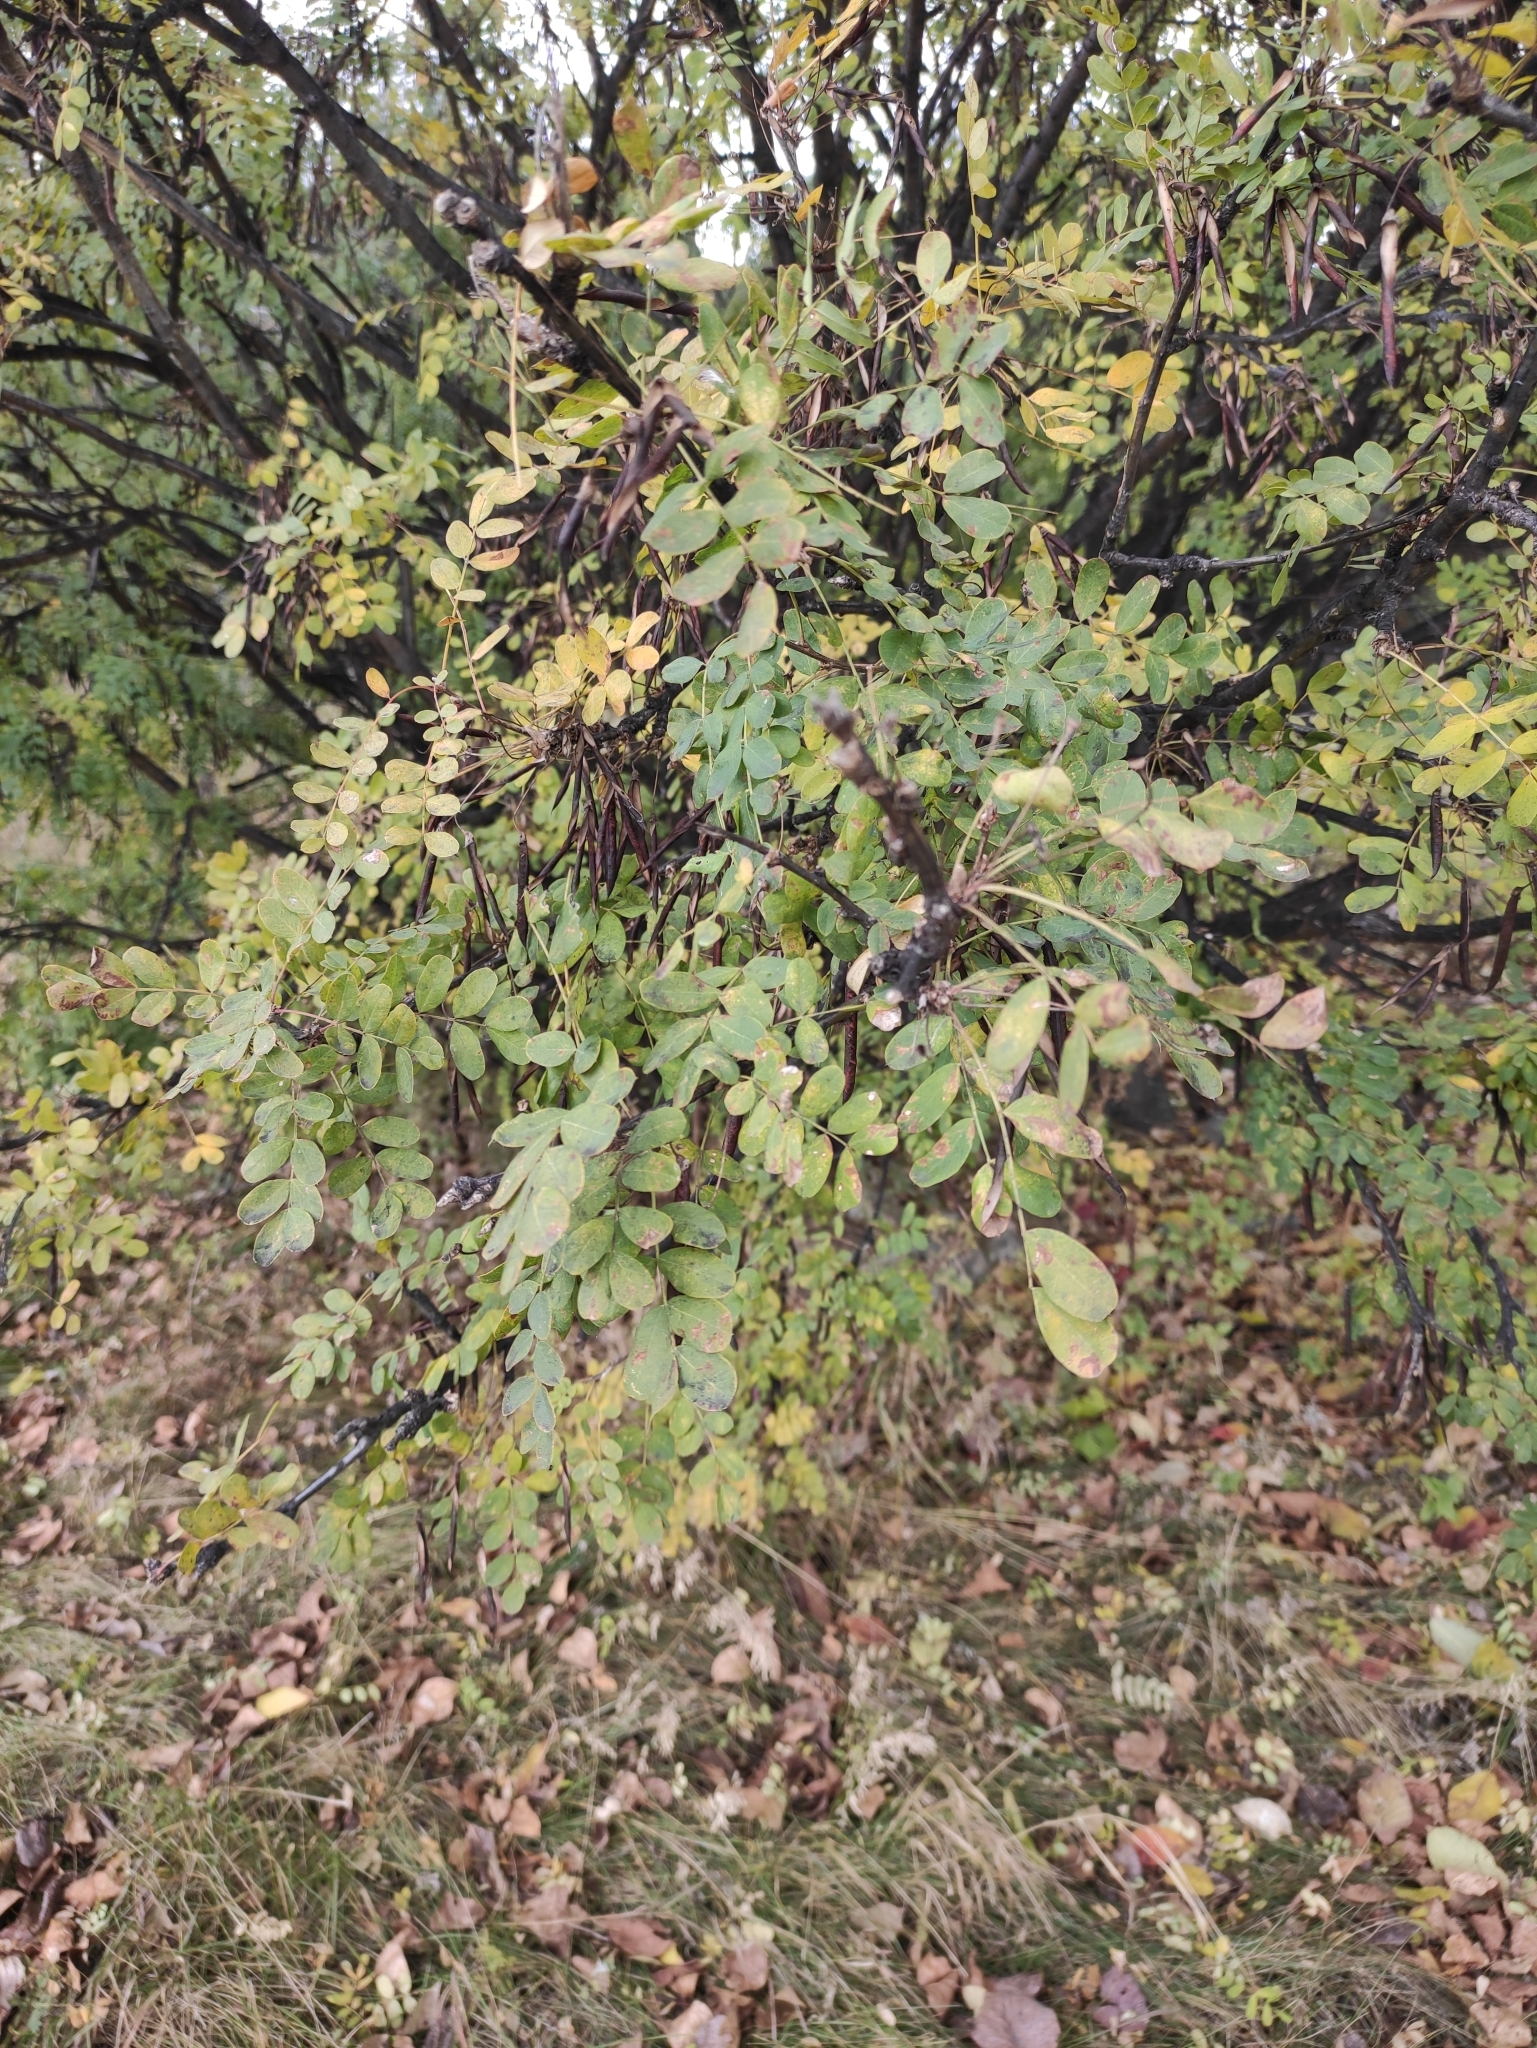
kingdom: Plantae
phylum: Tracheophyta
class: Magnoliopsida
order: Fabales
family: Fabaceae
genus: Caragana
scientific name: Caragana arborescens
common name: Siberian peashrub
